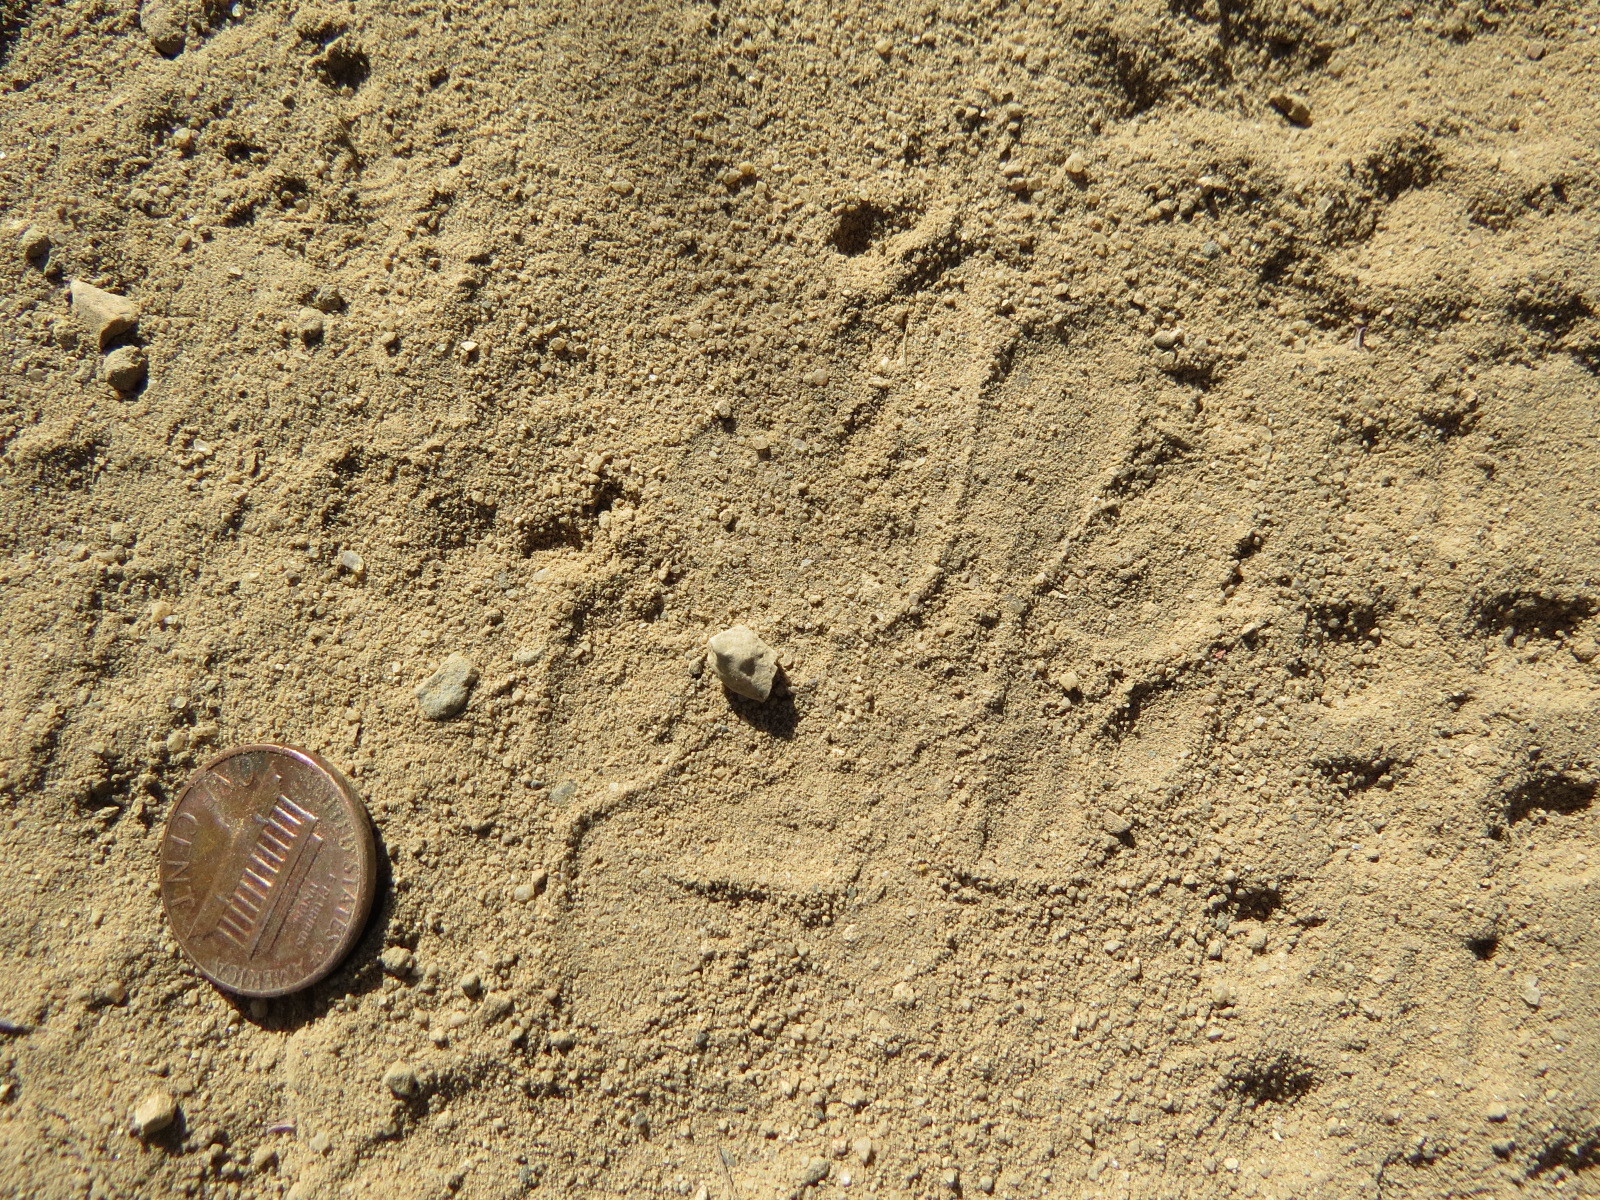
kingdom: Animalia
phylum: Chordata
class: Mammalia
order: Carnivora
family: Mustelidae
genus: Taxidea
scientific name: Taxidea taxus
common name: American badger
